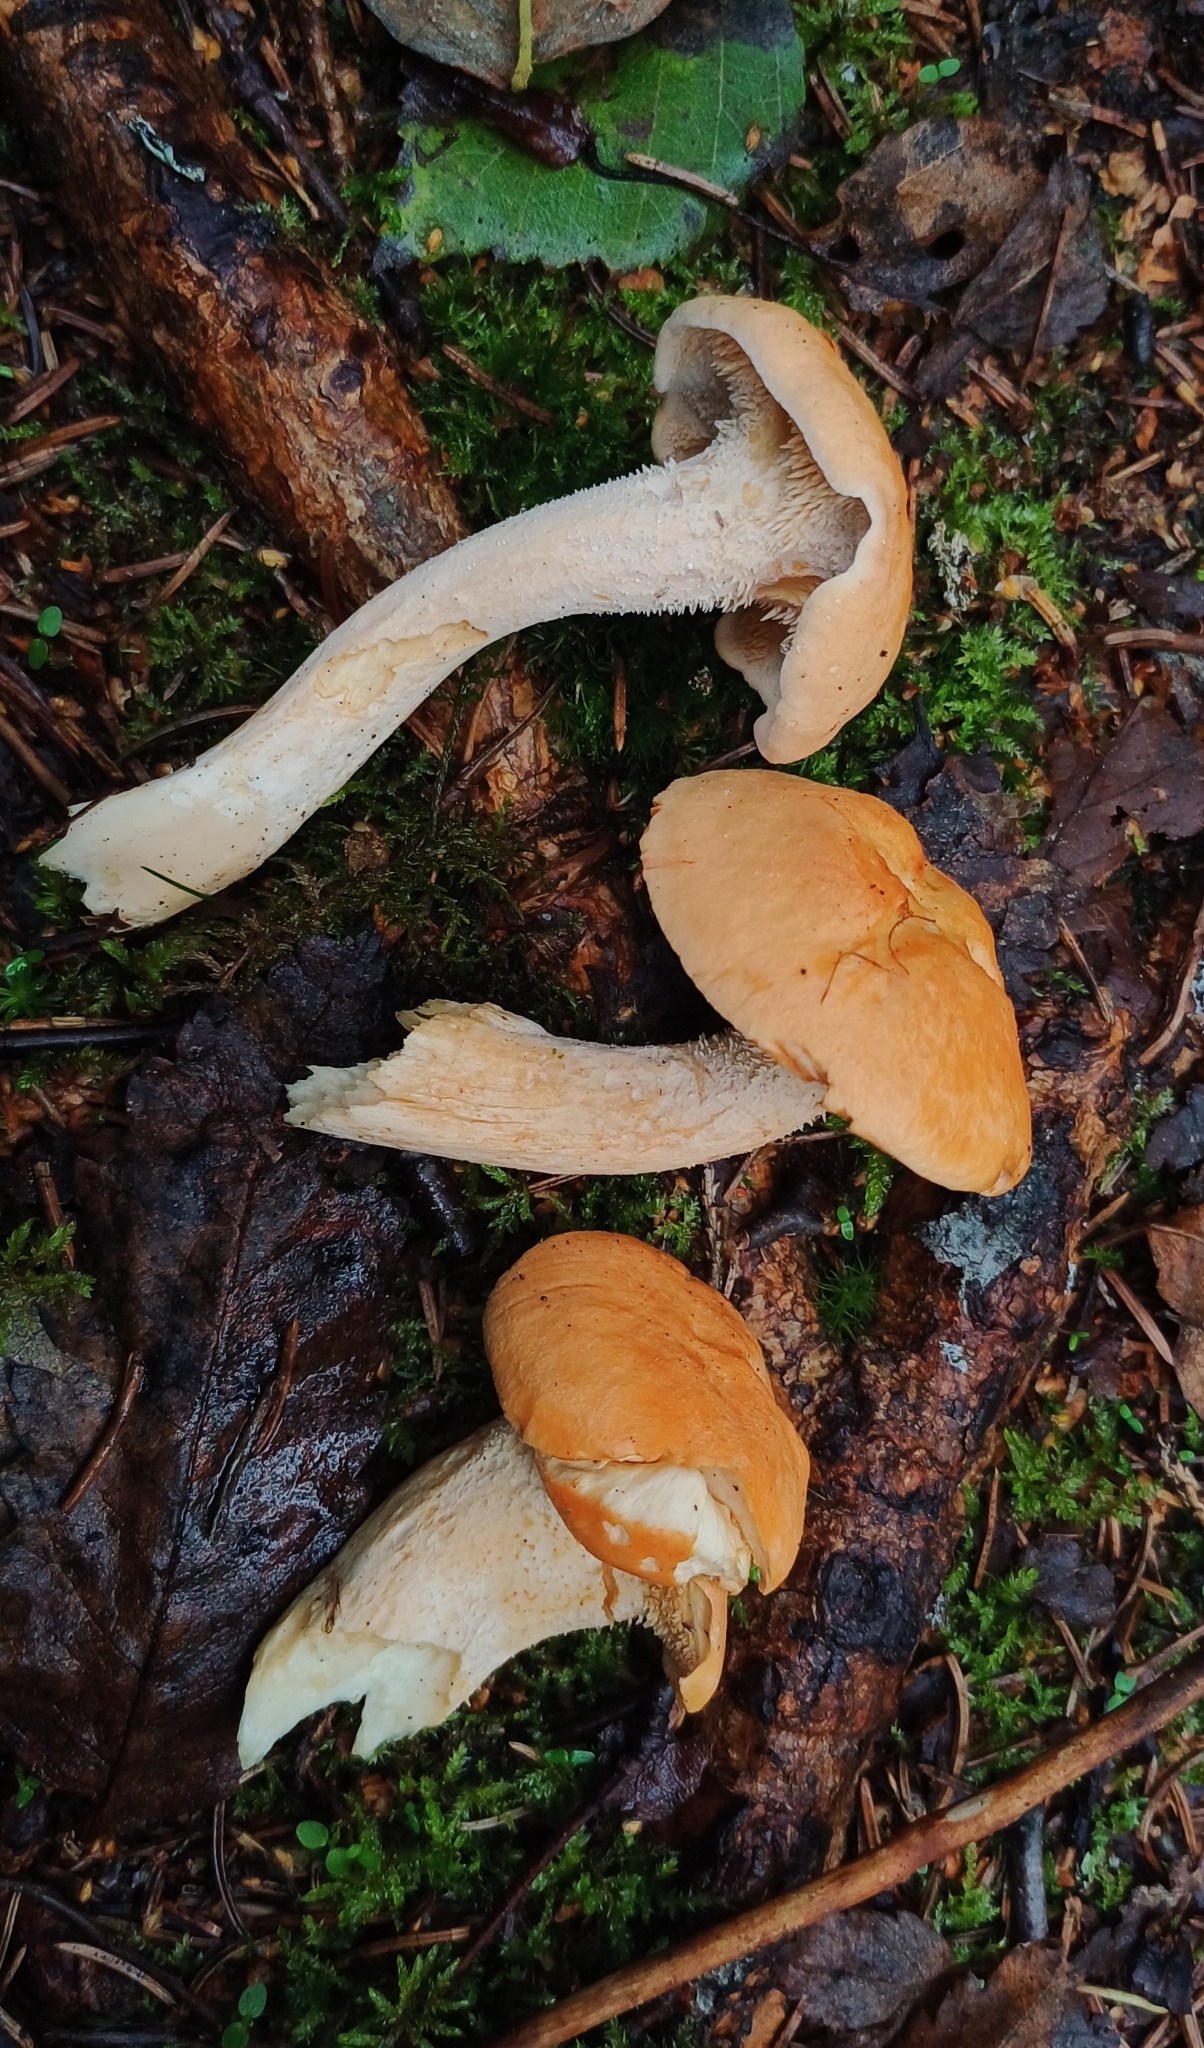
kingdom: Fungi
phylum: Basidiomycota
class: Agaricomycetes
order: Cantharellales
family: Hydnaceae
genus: Hydnum
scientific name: Hydnum rufescens
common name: Terracotta hedgehog
